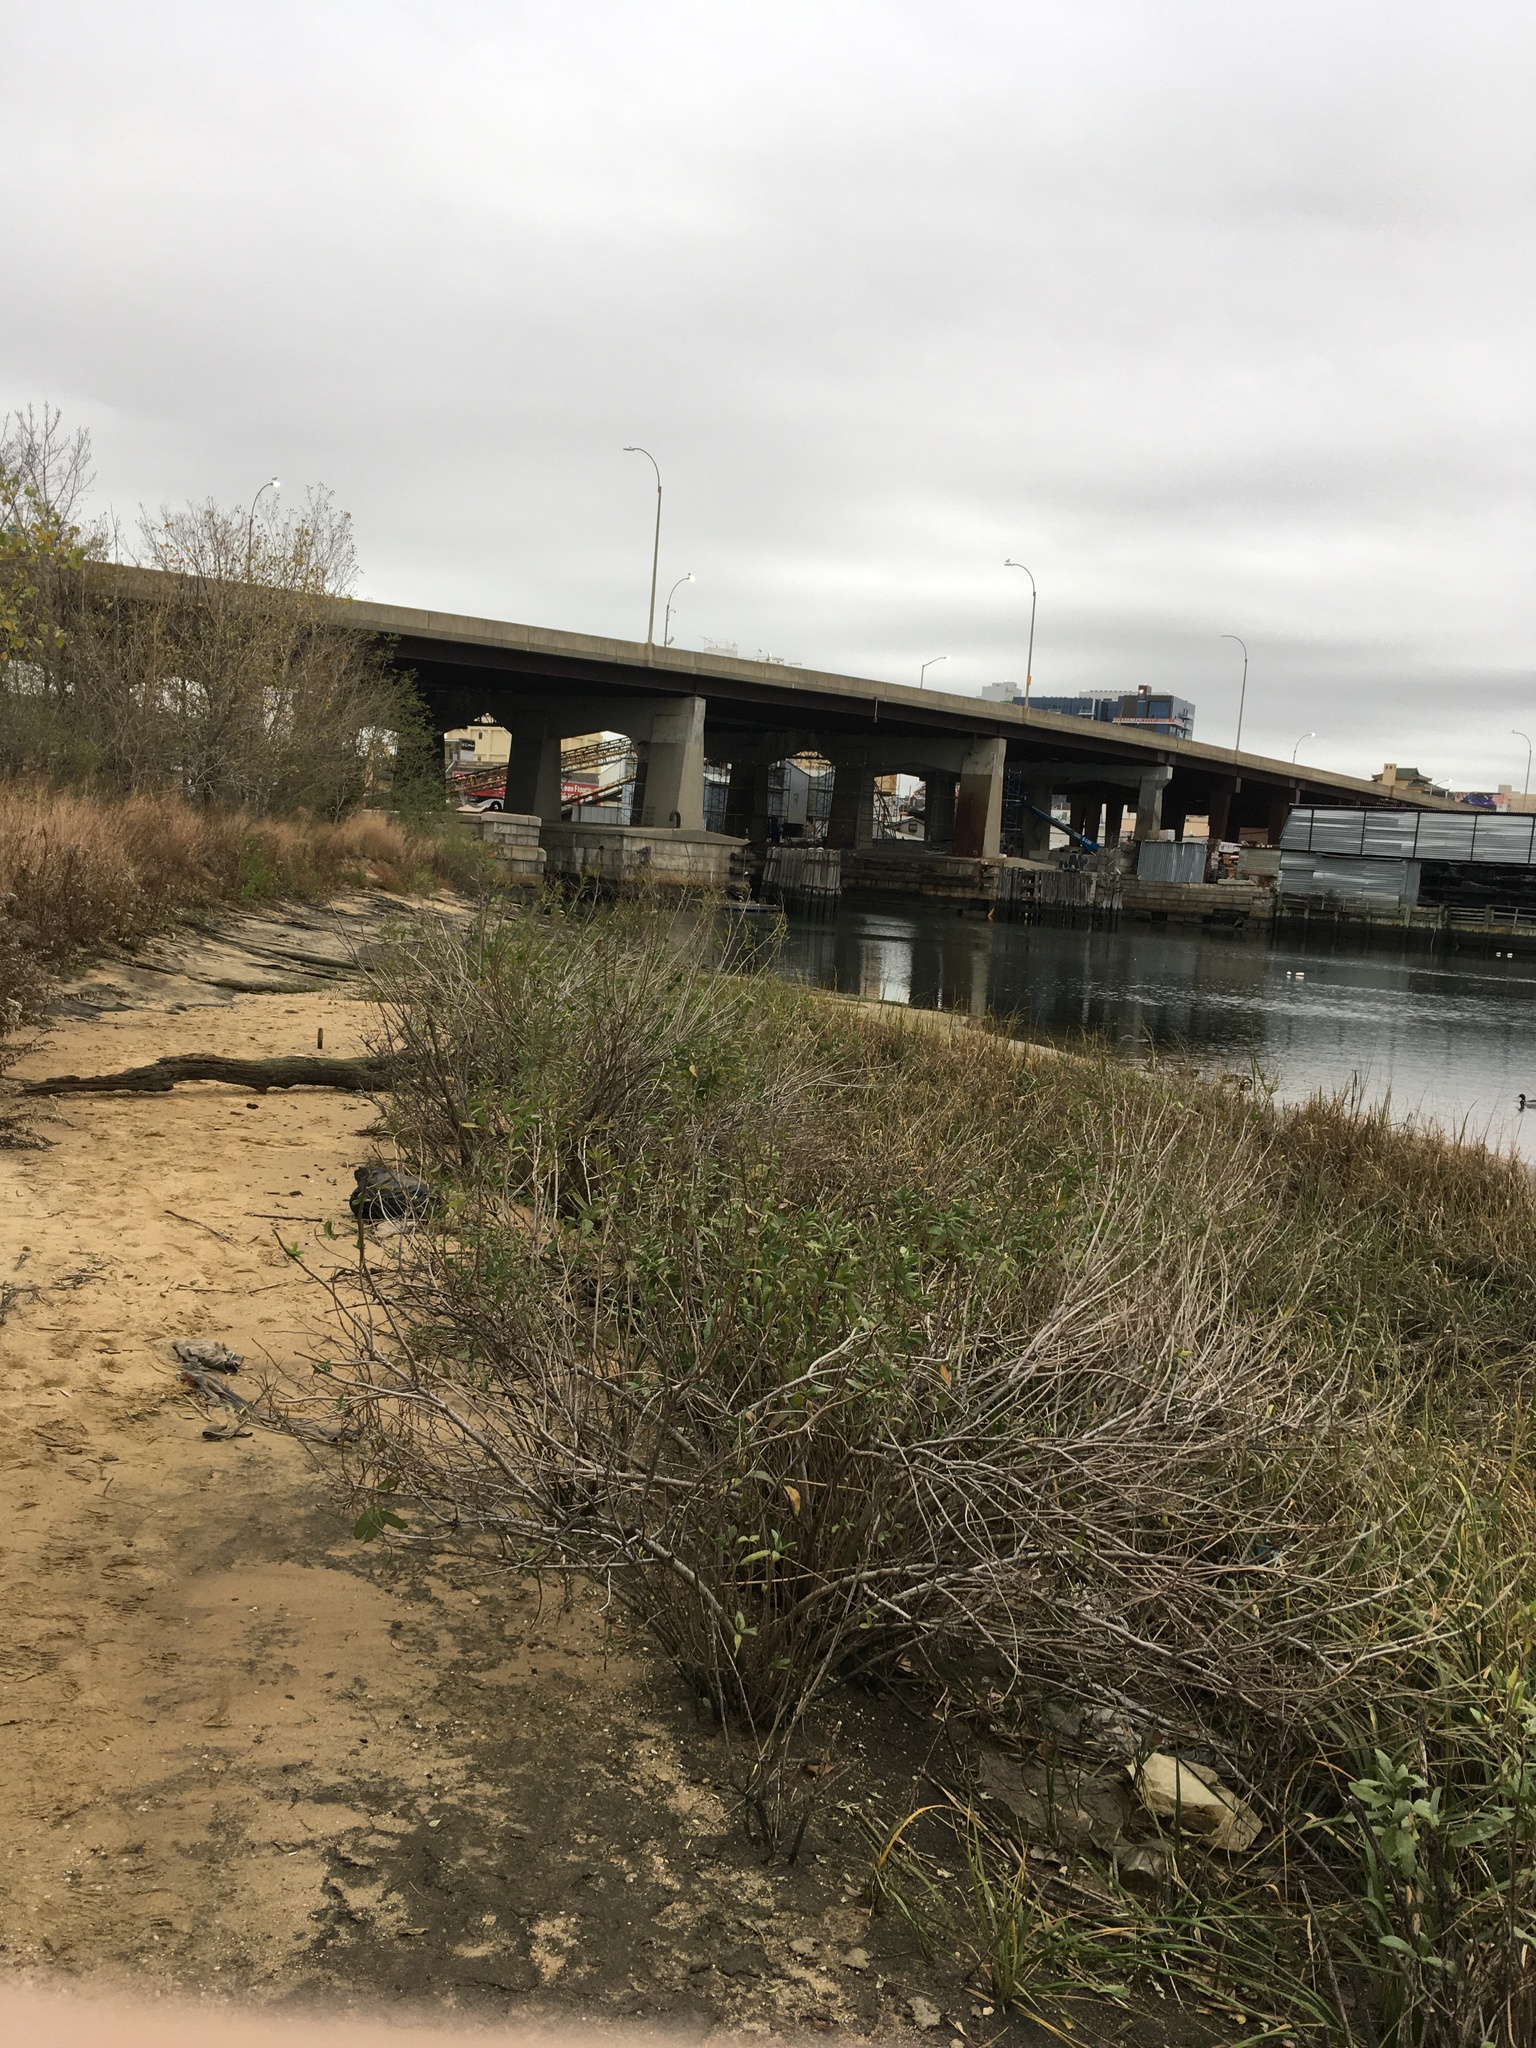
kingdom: Plantae
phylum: Tracheophyta
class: Magnoliopsida
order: Asterales
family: Asteraceae
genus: Iva
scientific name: Iva frutescens
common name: Big-leaved marsh-elder
